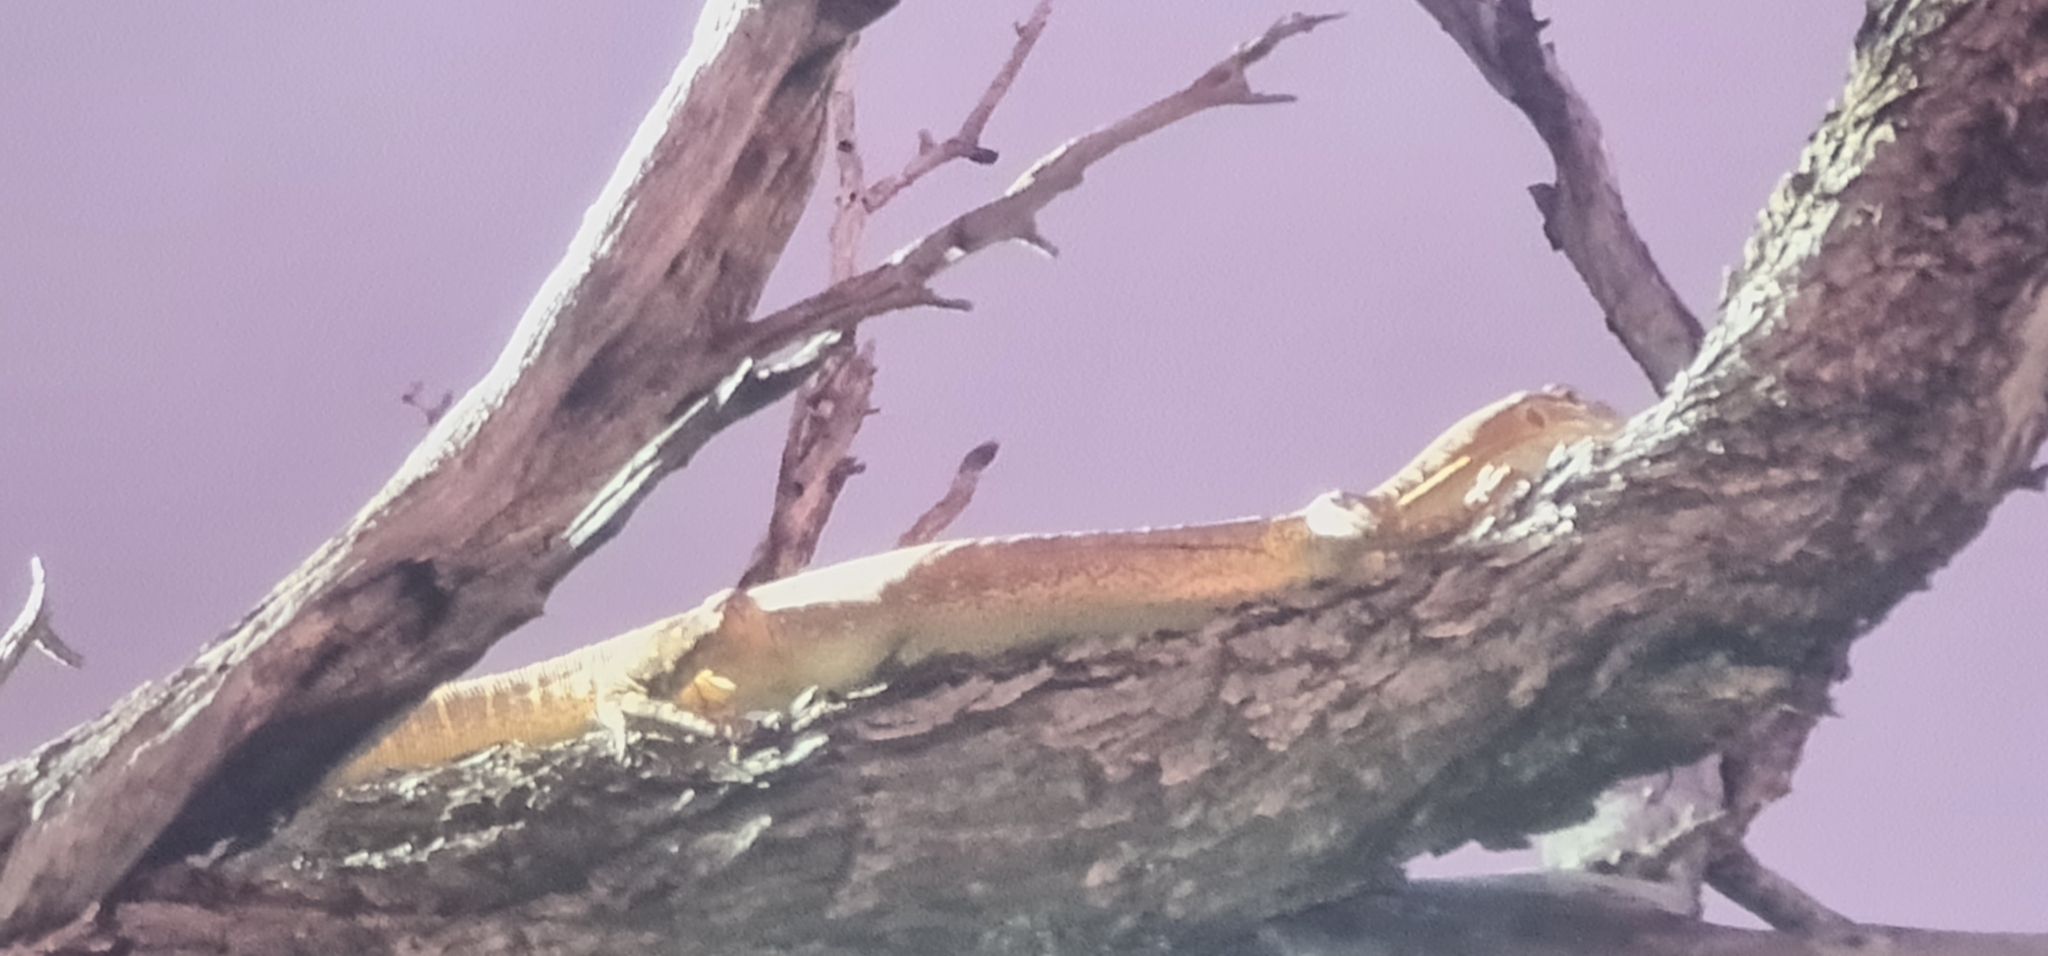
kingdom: Animalia
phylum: Chordata
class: Squamata
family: Varanidae
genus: Varanus
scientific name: Varanus gouldii
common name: Gould's goanna
